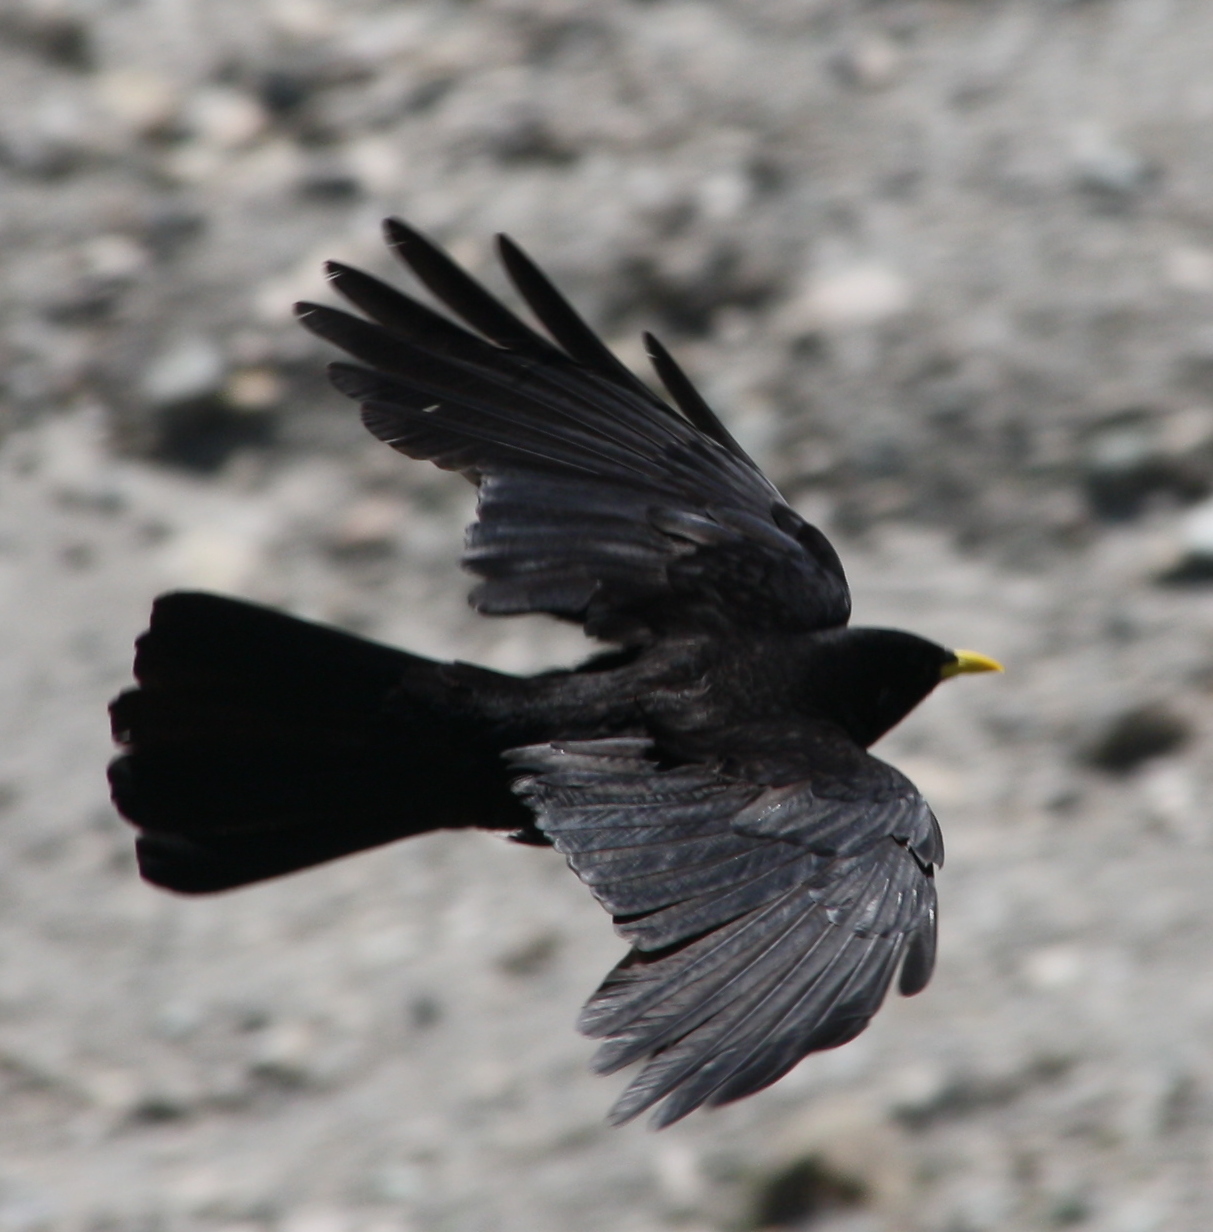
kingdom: Animalia
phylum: Chordata
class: Aves
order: Passeriformes
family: Corvidae
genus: Pyrrhocorax
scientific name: Pyrrhocorax graculus
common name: Alpine chough
